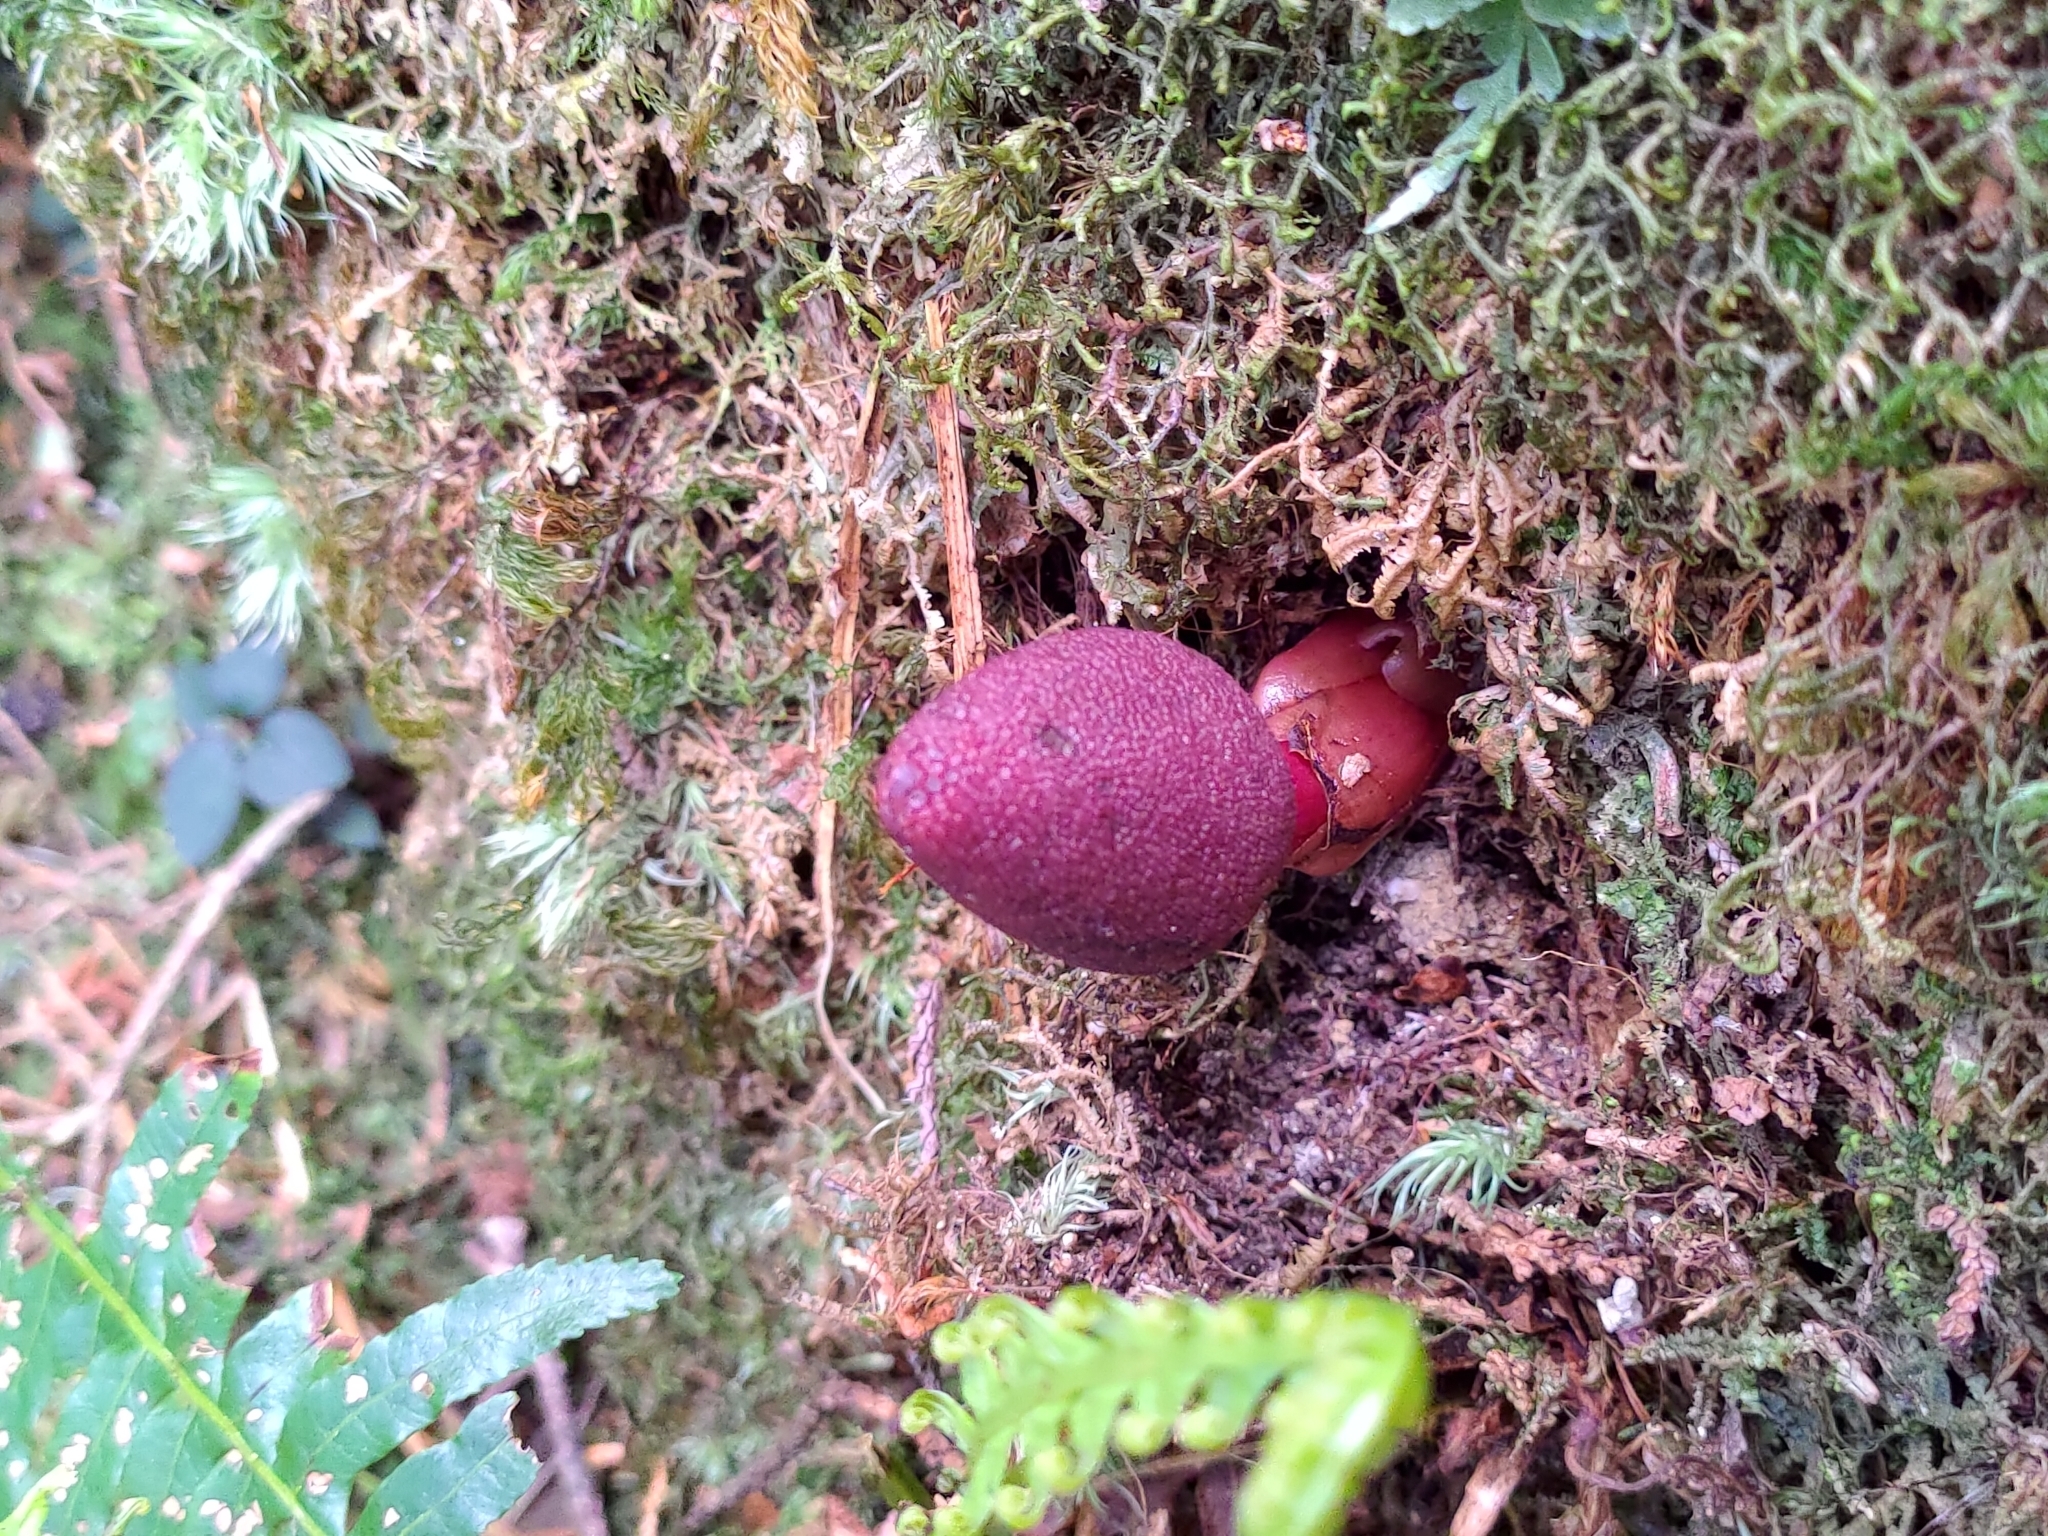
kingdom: Plantae
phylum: Tracheophyta
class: Magnoliopsida
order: Santalales
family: Balanophoraceae
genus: Balanophora
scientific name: Balanophora harlandii
